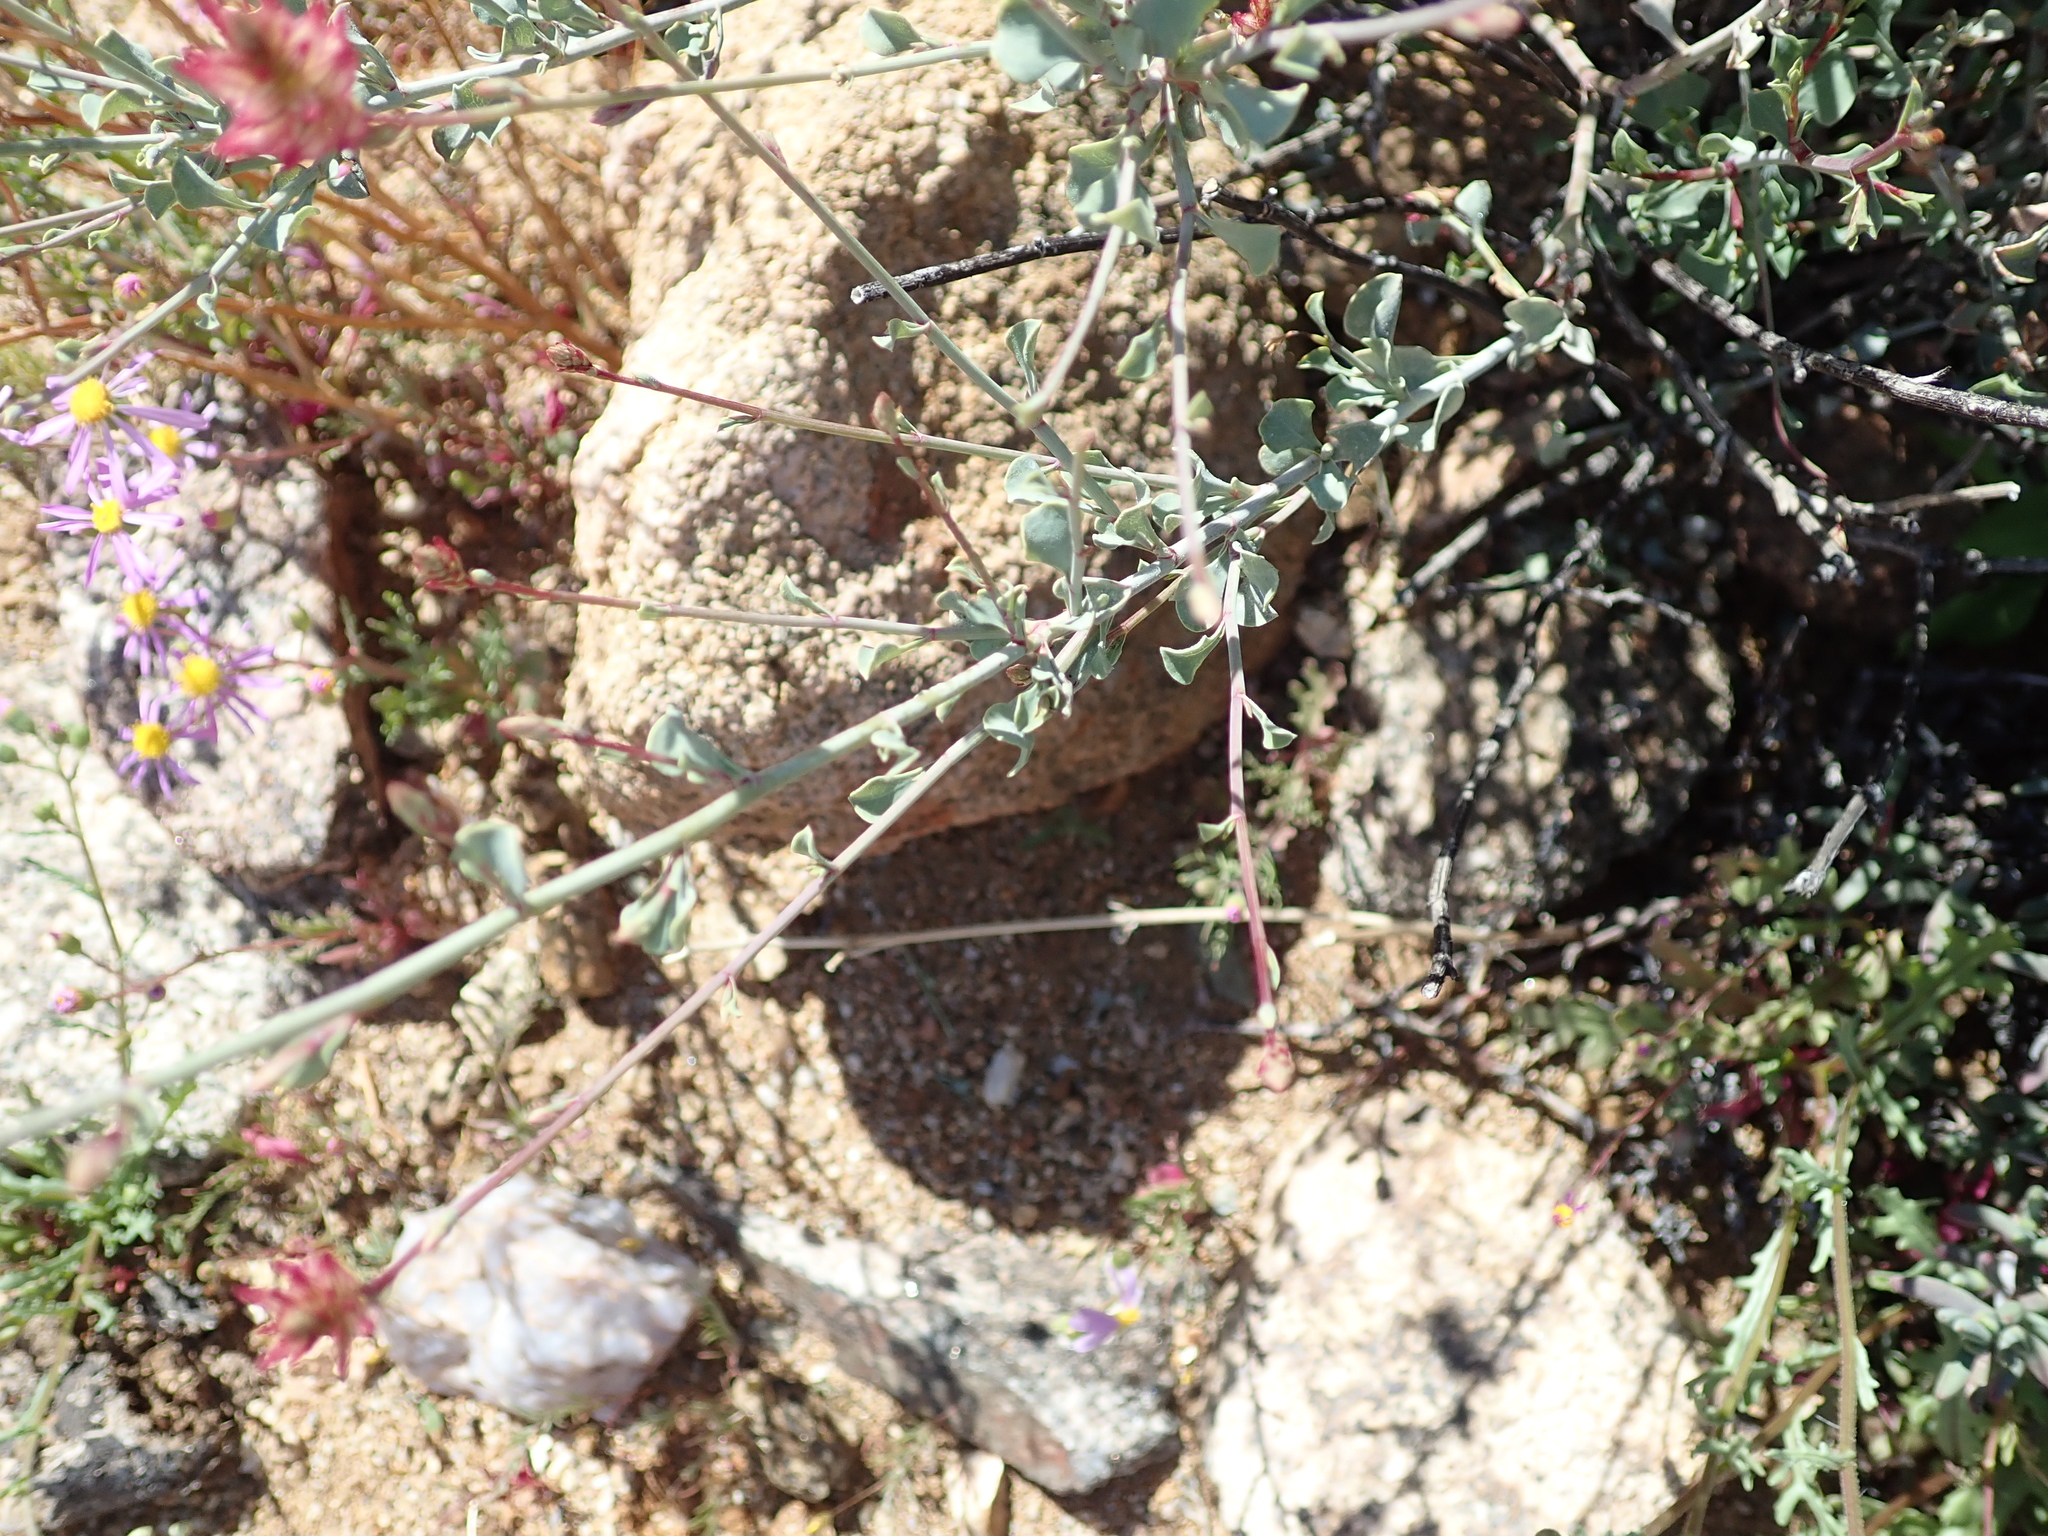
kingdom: Plantae
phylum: Tracheophyta
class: Magnoliopsida
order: Caryophyllales
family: Plumbaginaceae
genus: Dyerophytum
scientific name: Dyerophytum africanum
